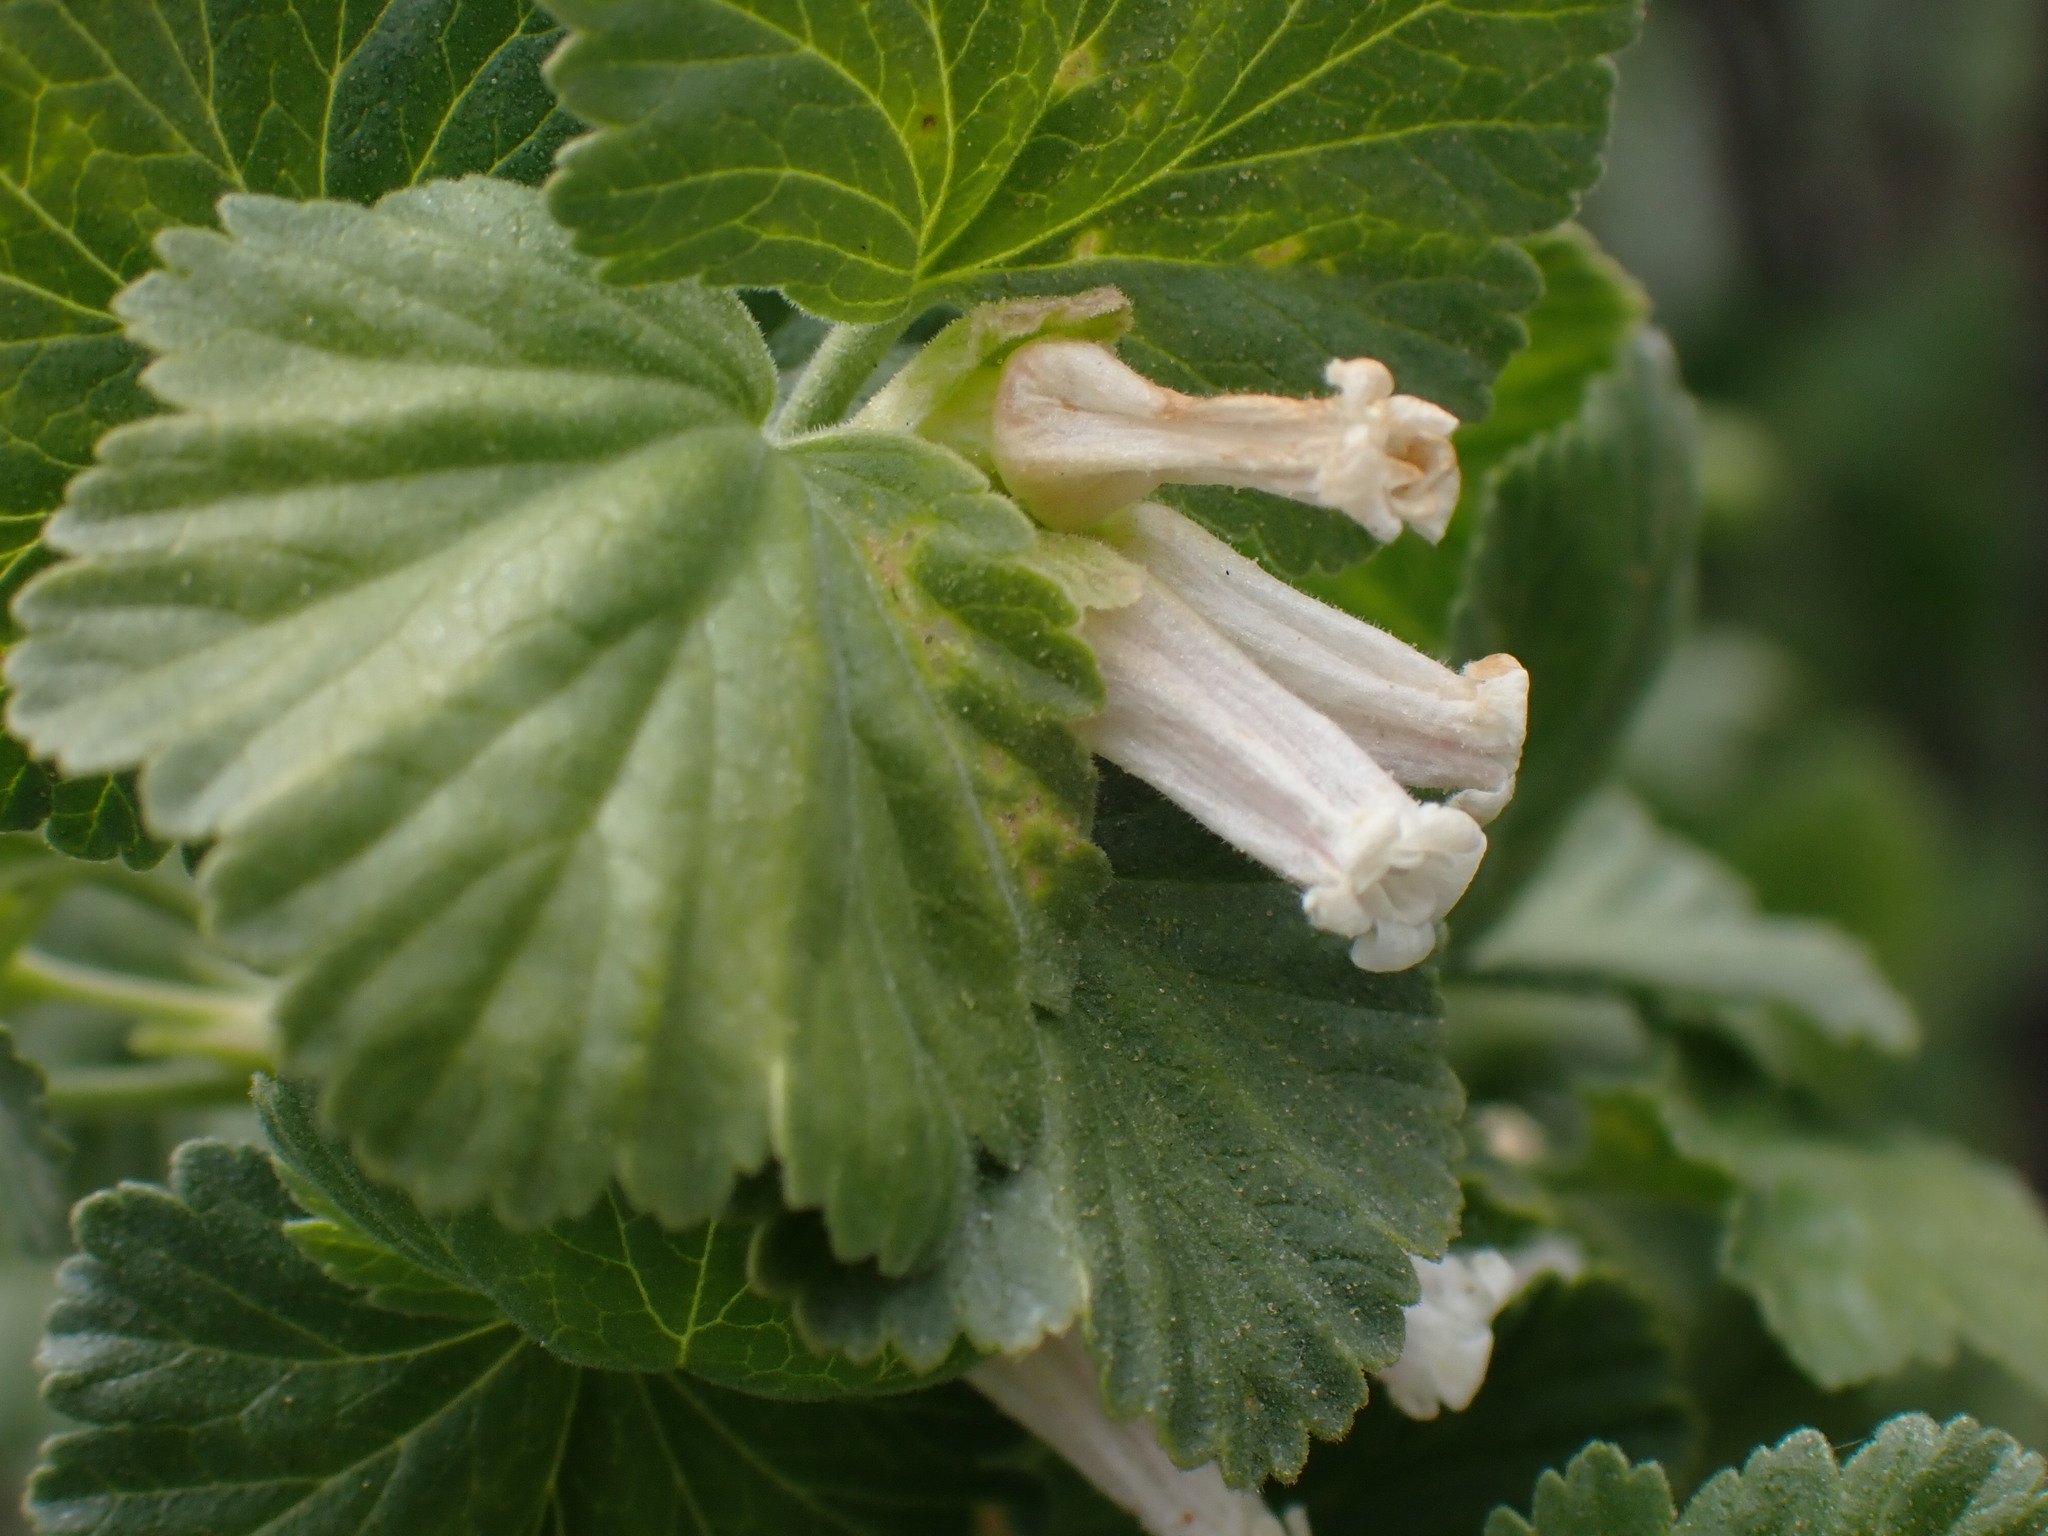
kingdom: Plantae
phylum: Tracheophyta
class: Magnoliopsida
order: Saxifragales
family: Grossulariaceae
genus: Ribes
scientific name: Ribes cereum
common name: Wax currant
